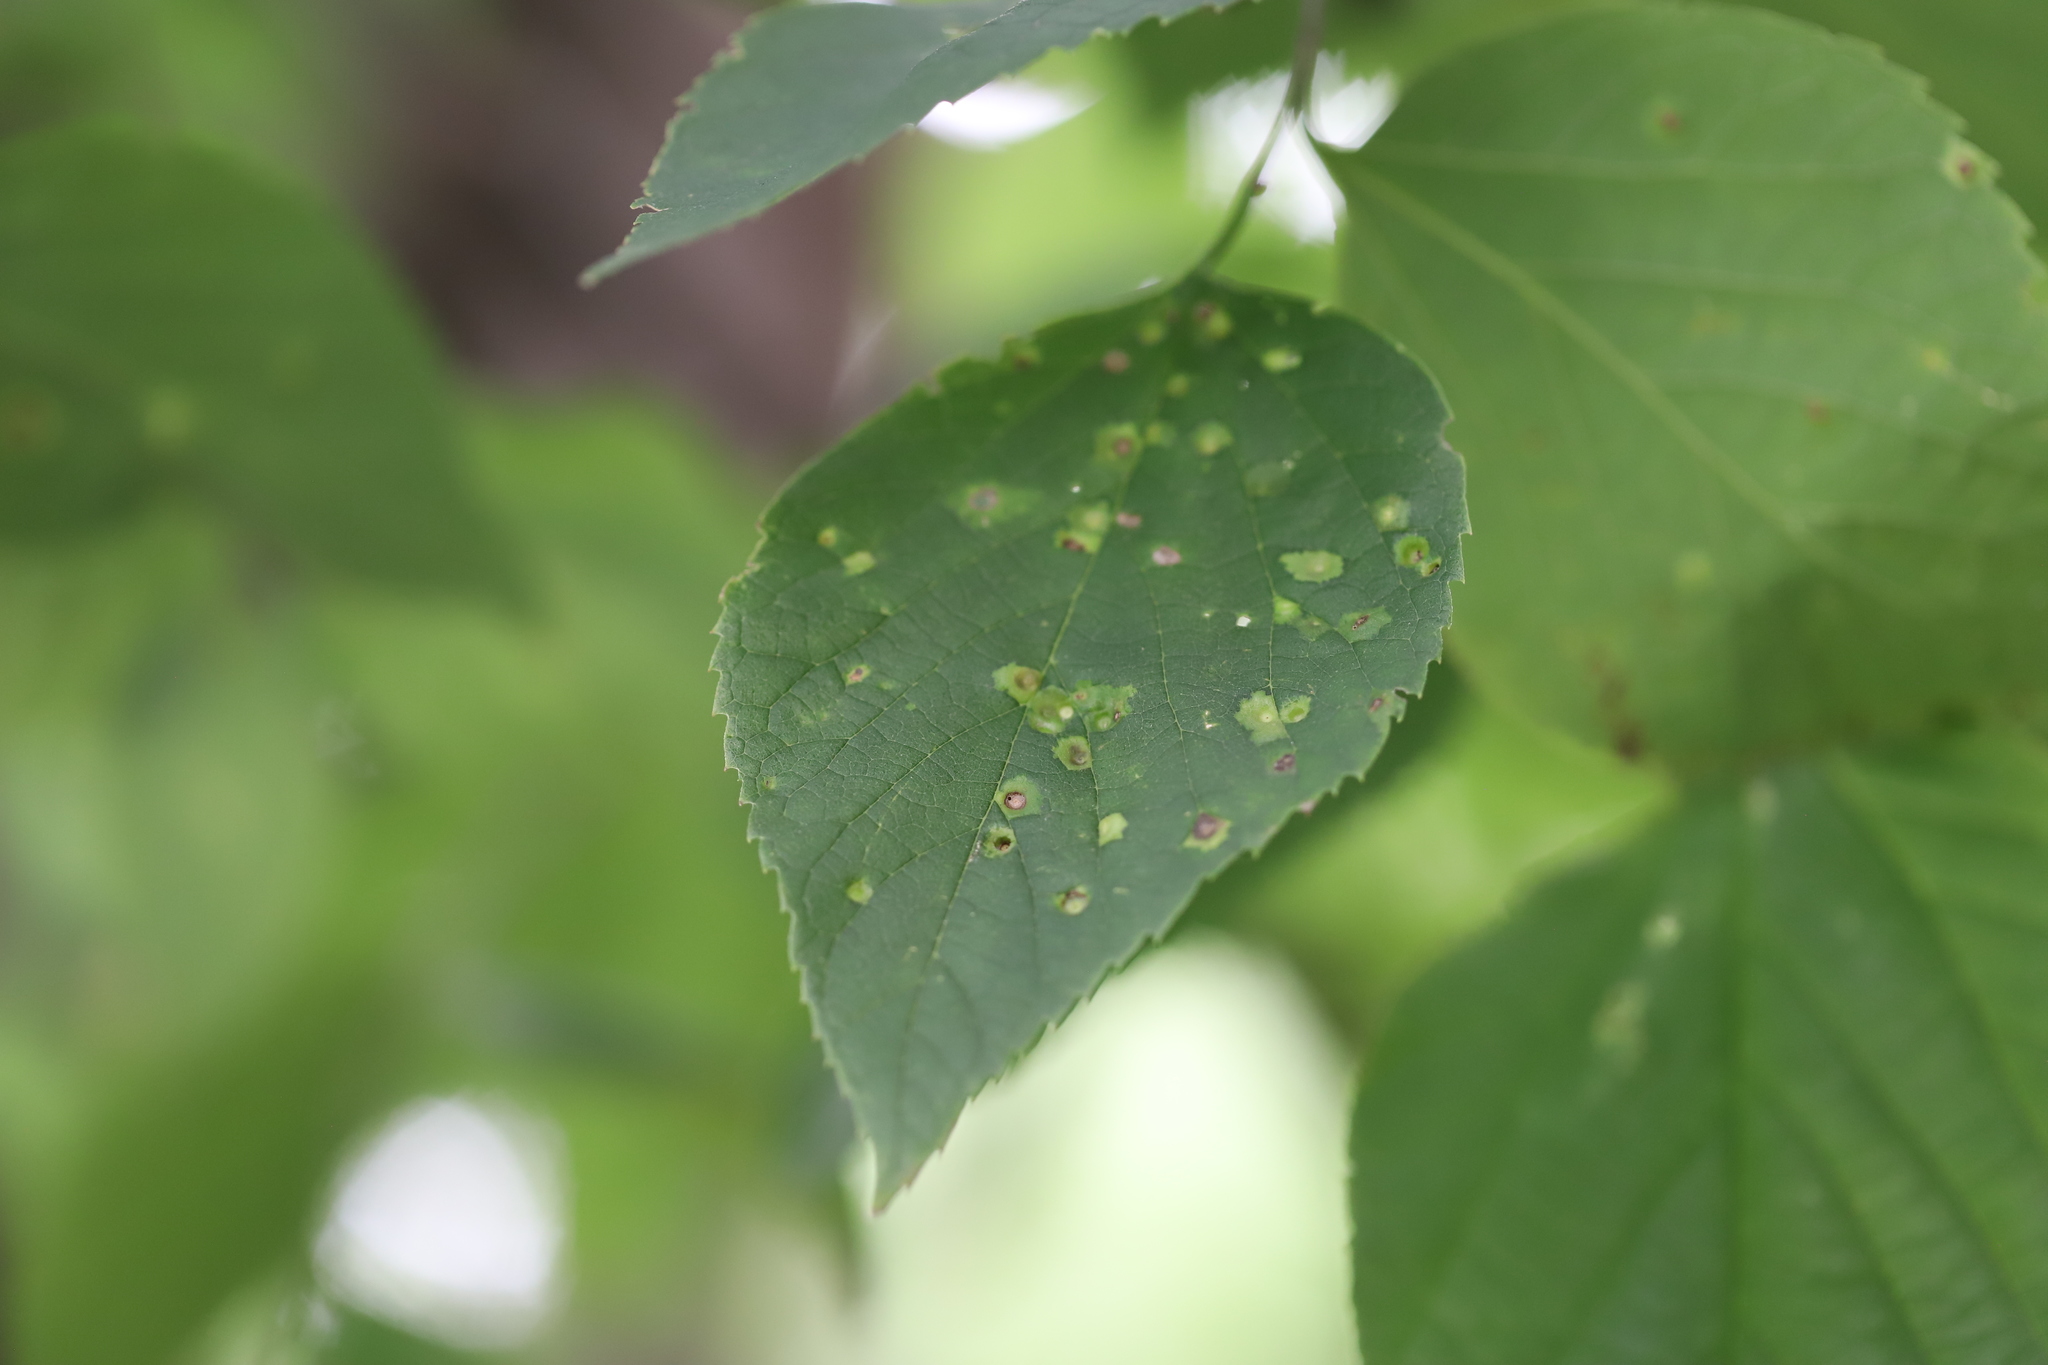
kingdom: Animalia
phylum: Arthropoda
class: Insecta
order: Hemiptera
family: Aphalaridae
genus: Pachypsylla
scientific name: Pachypsylla celtidisvesicula
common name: Hackberry blister gall psyllid
